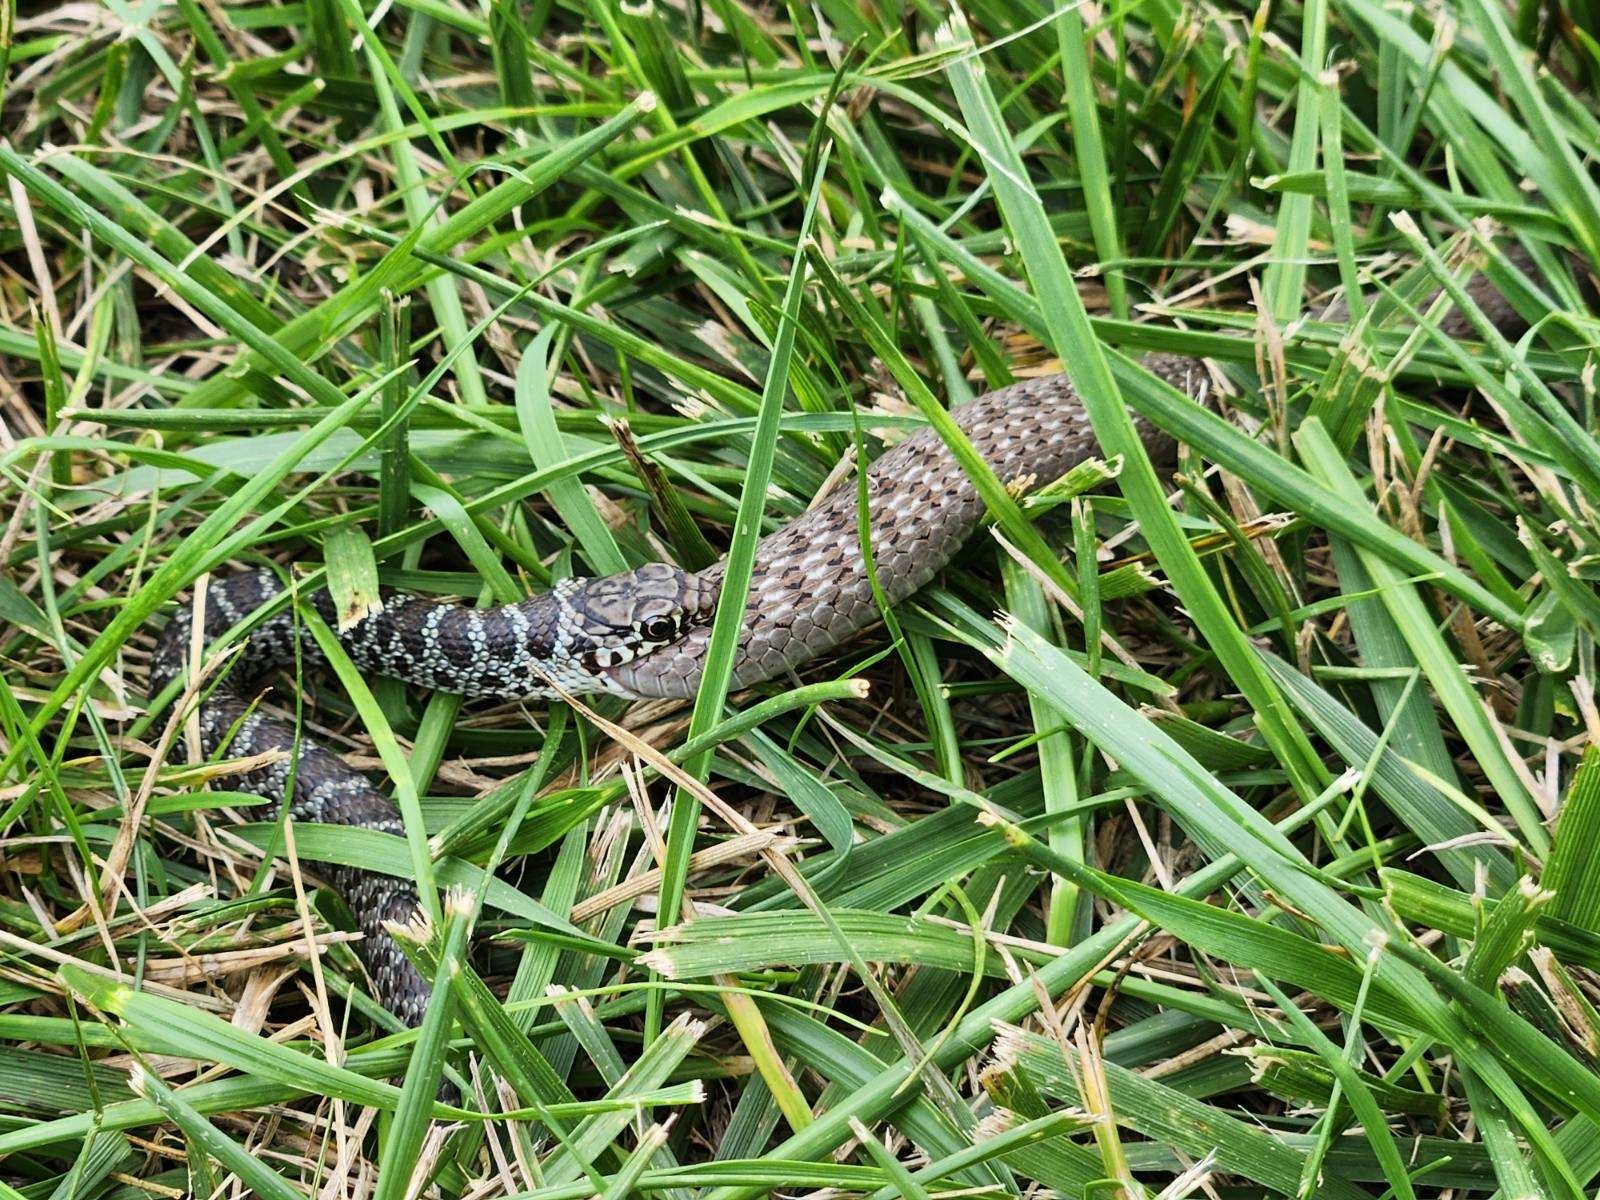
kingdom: Animalia
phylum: Chordata
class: Squamata
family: Colubridae
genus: Coluber
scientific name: Coluber constrictor
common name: Eastern racer
